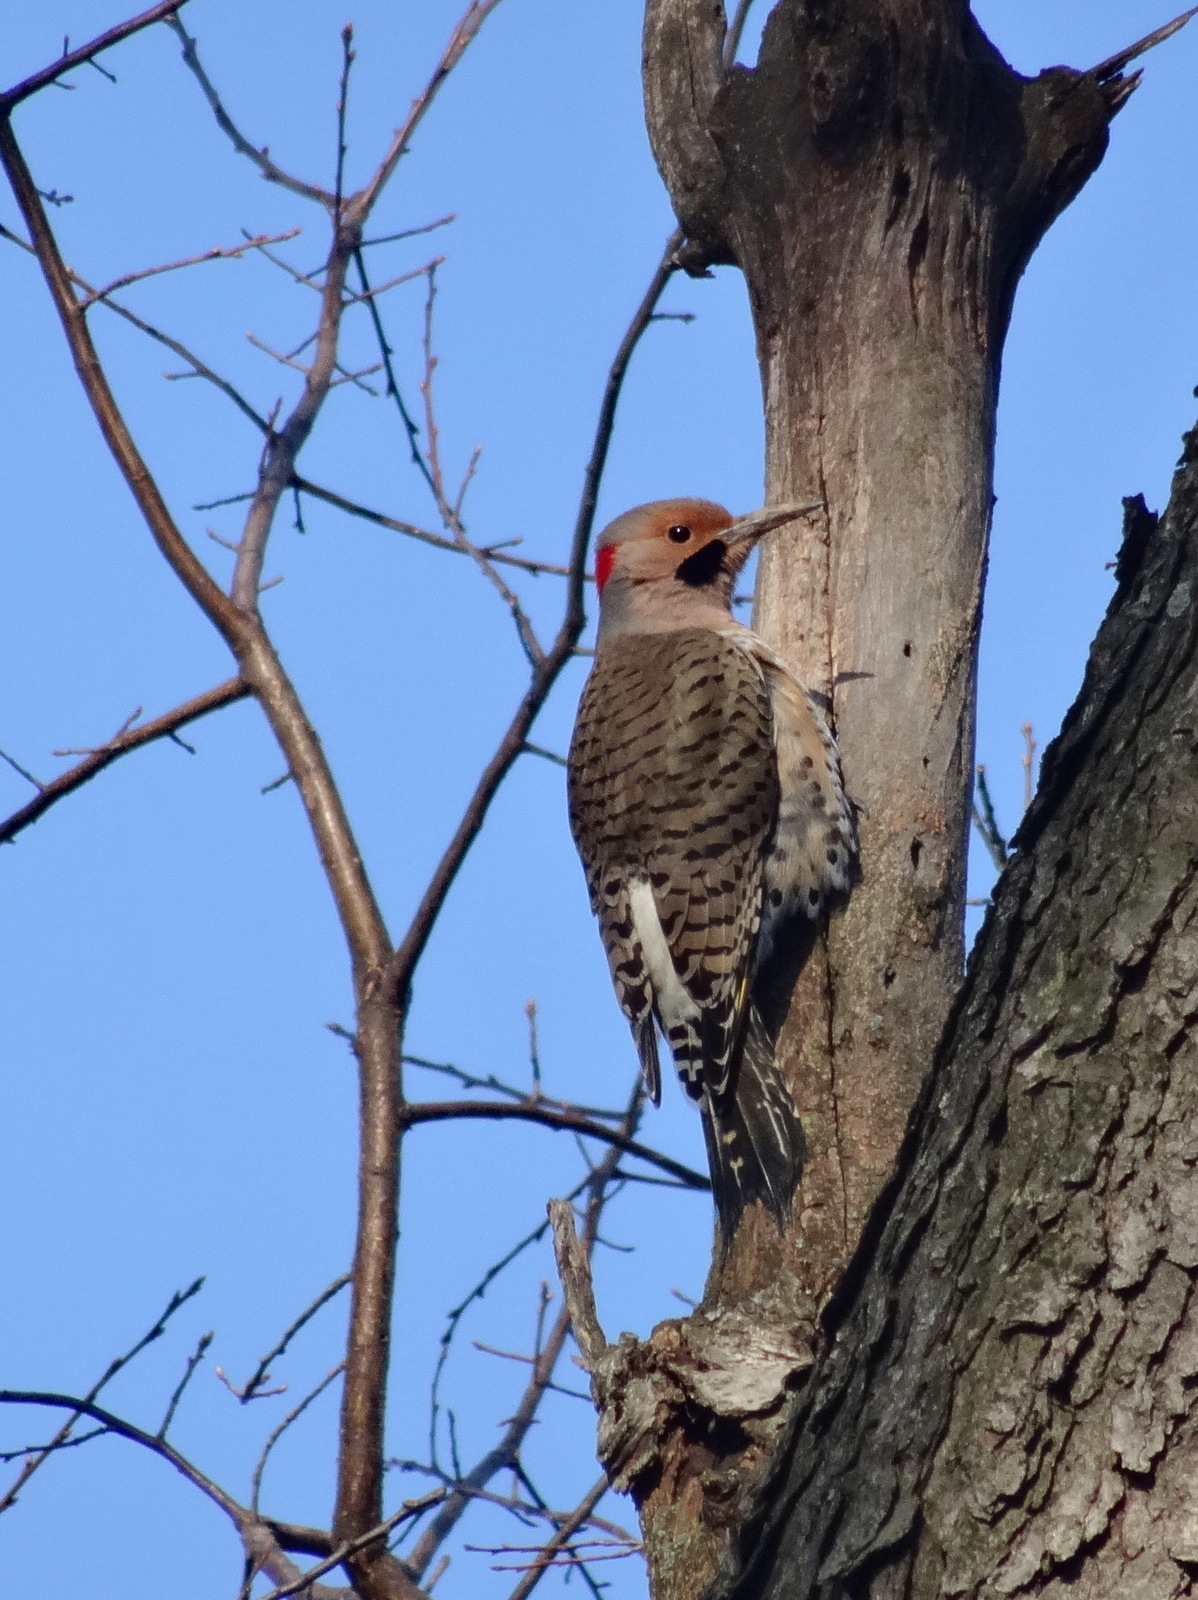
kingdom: Animalia
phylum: Chordata
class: Aves
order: Piciformes
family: Picidae
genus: Colaptes
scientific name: Colaptes auratus
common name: Northern flicker
